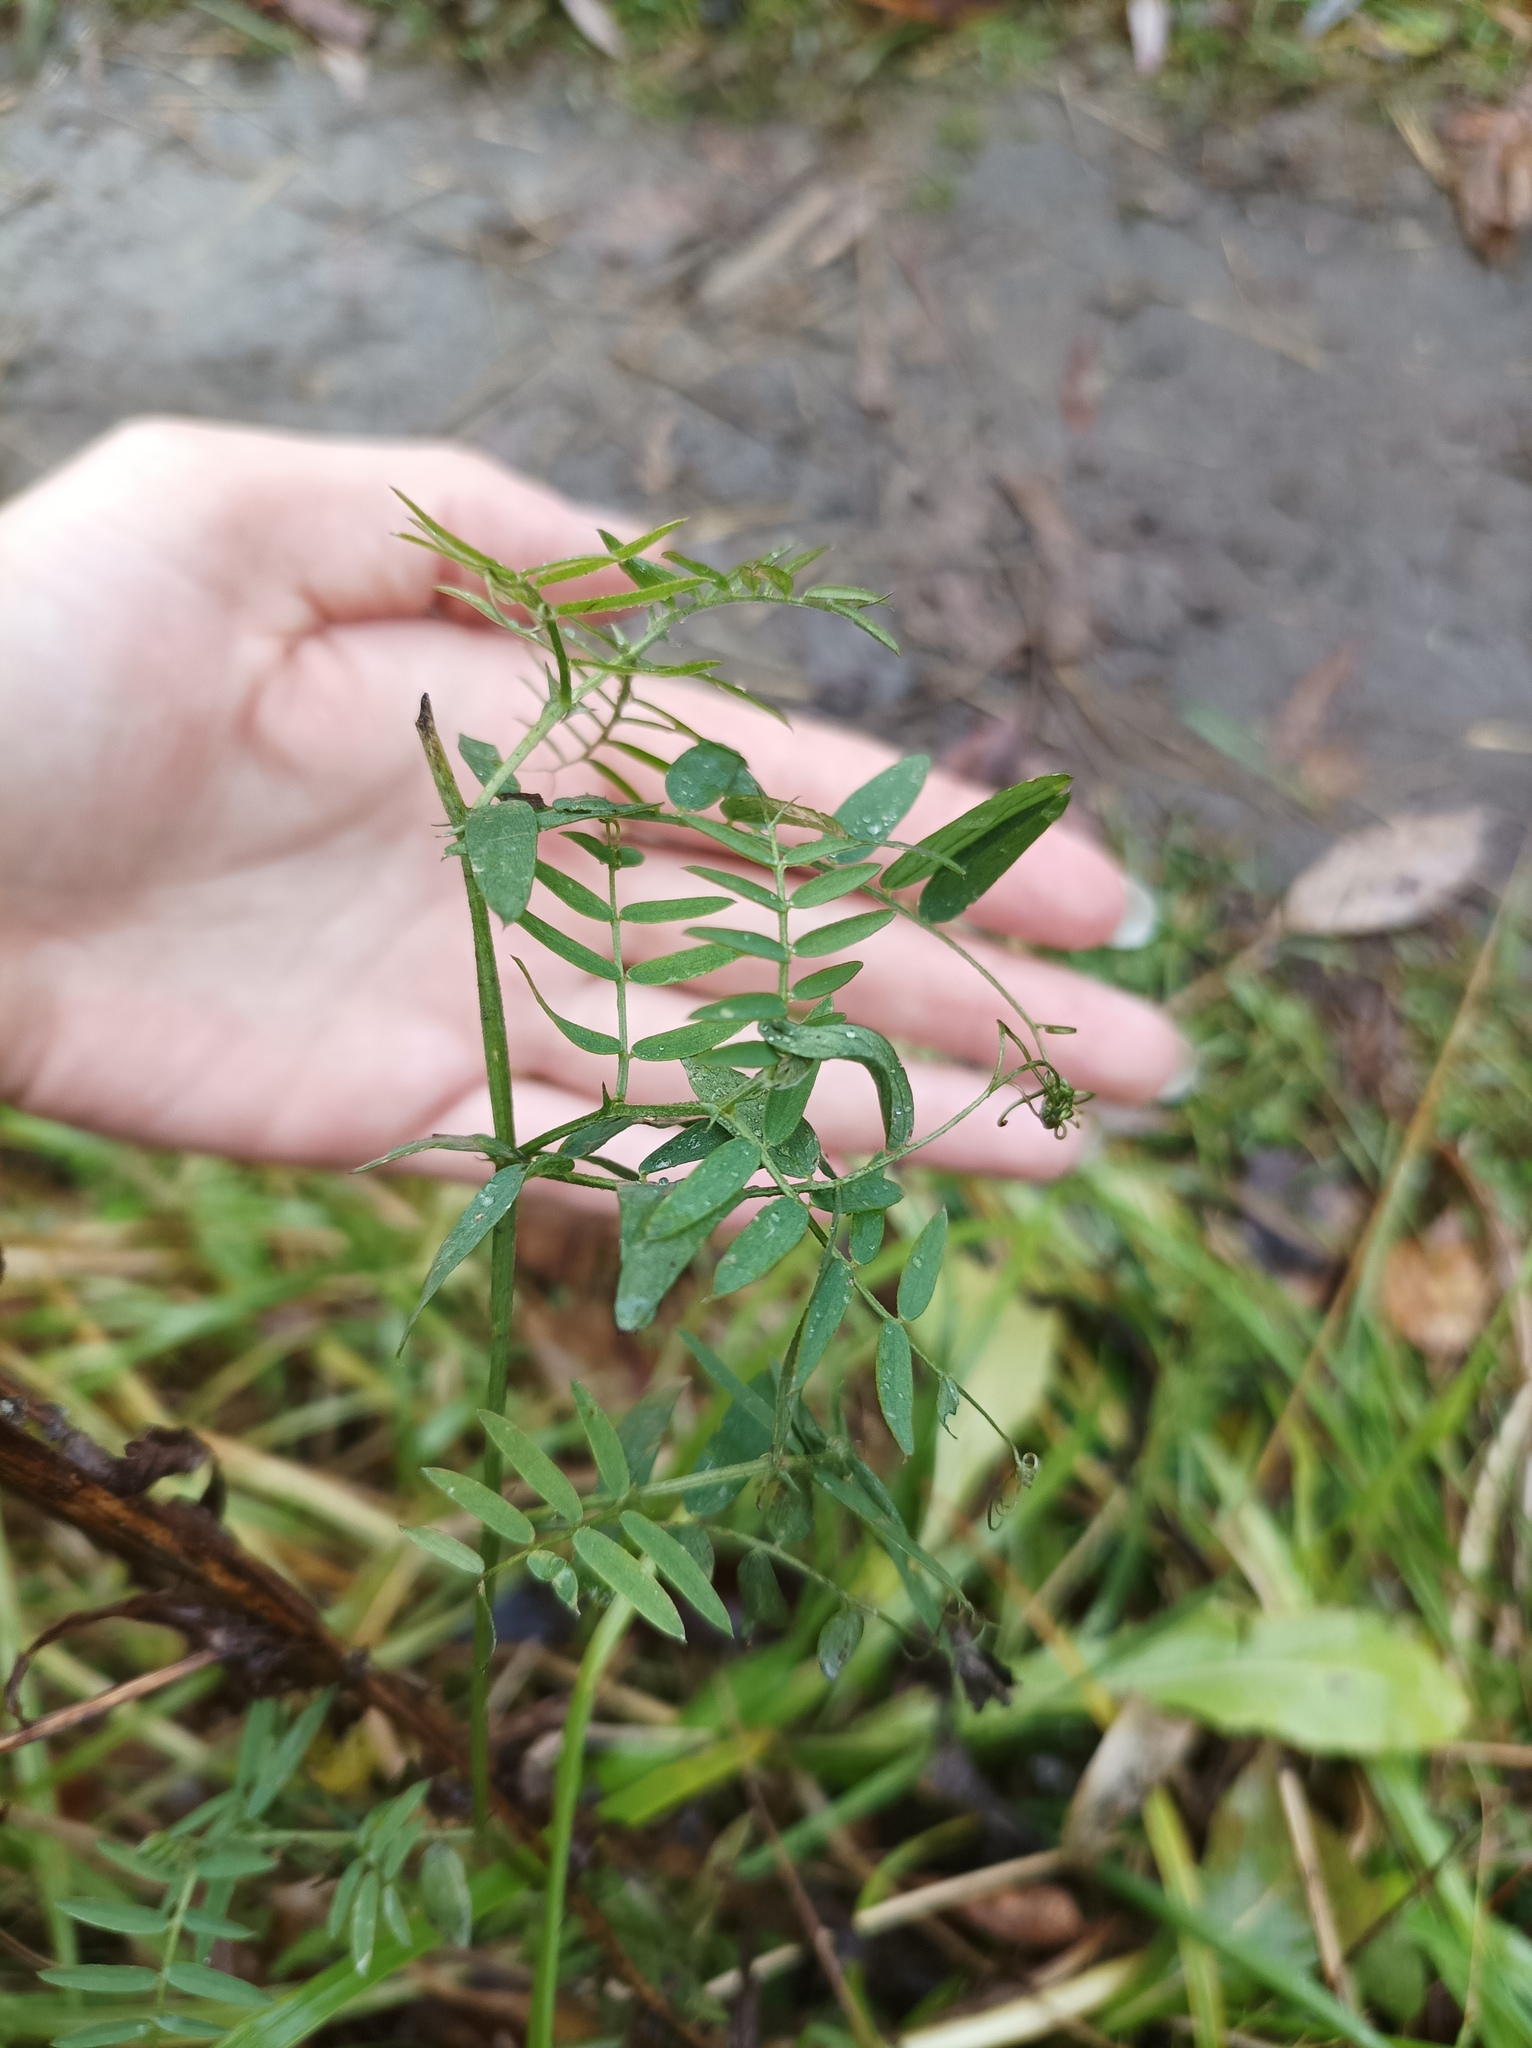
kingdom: Plantae
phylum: Tracheophyta
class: Magnoliopsida
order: Fabales
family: Fabaceae
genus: Vicia
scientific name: Vicia cracca
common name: Bird vetch
